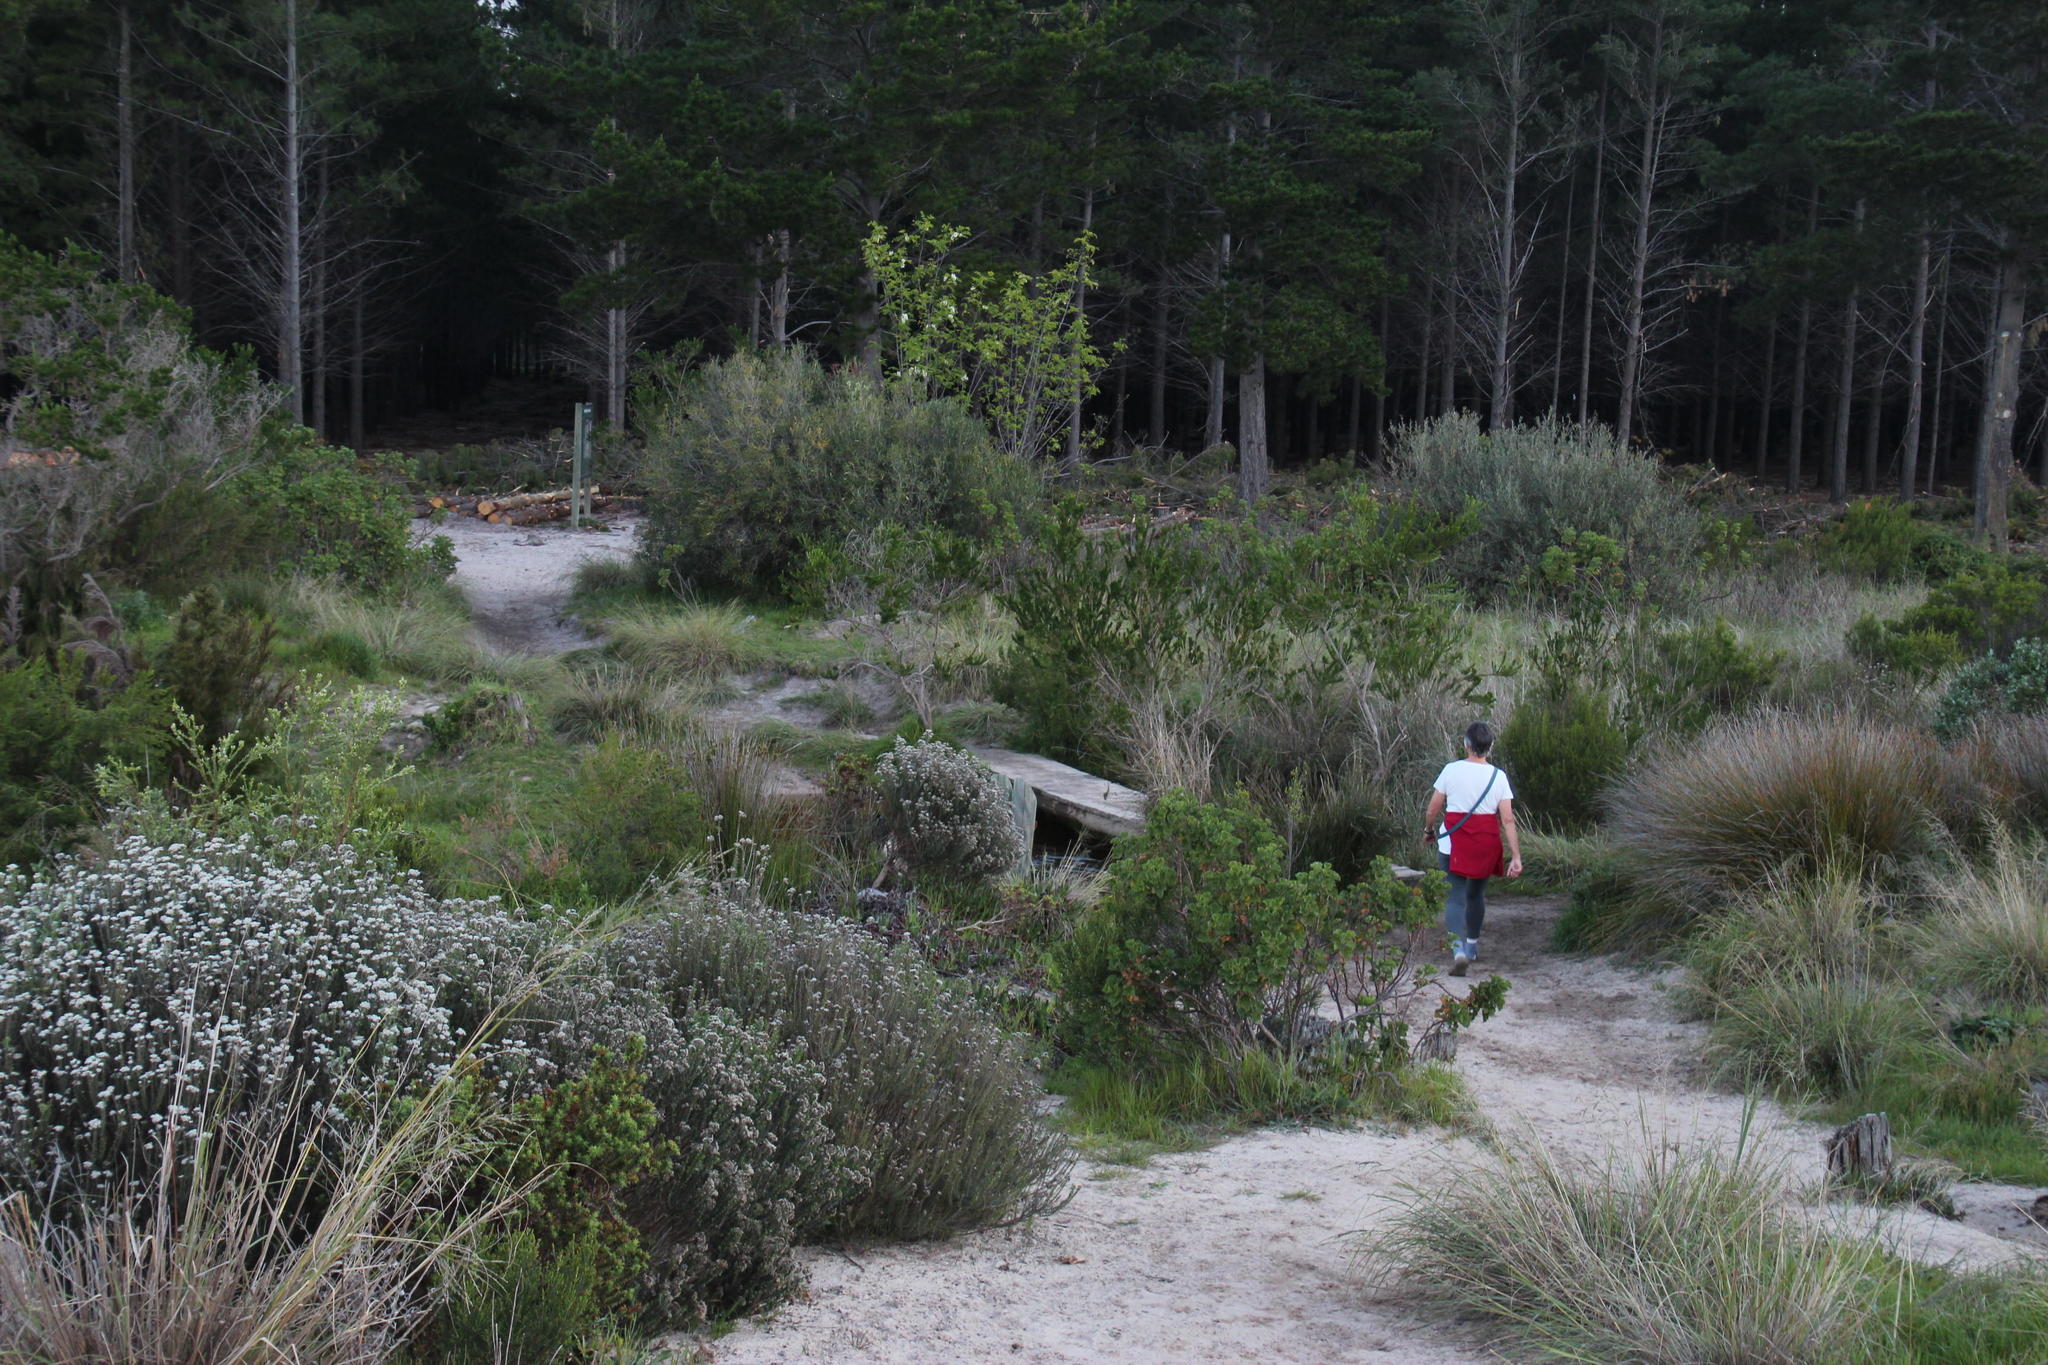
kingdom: Plantae
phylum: Tracheophyta
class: Magnoliopsida
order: Fabales
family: Fabaceae
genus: Robinia
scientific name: Robinia pseudoacacia
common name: Black locust
